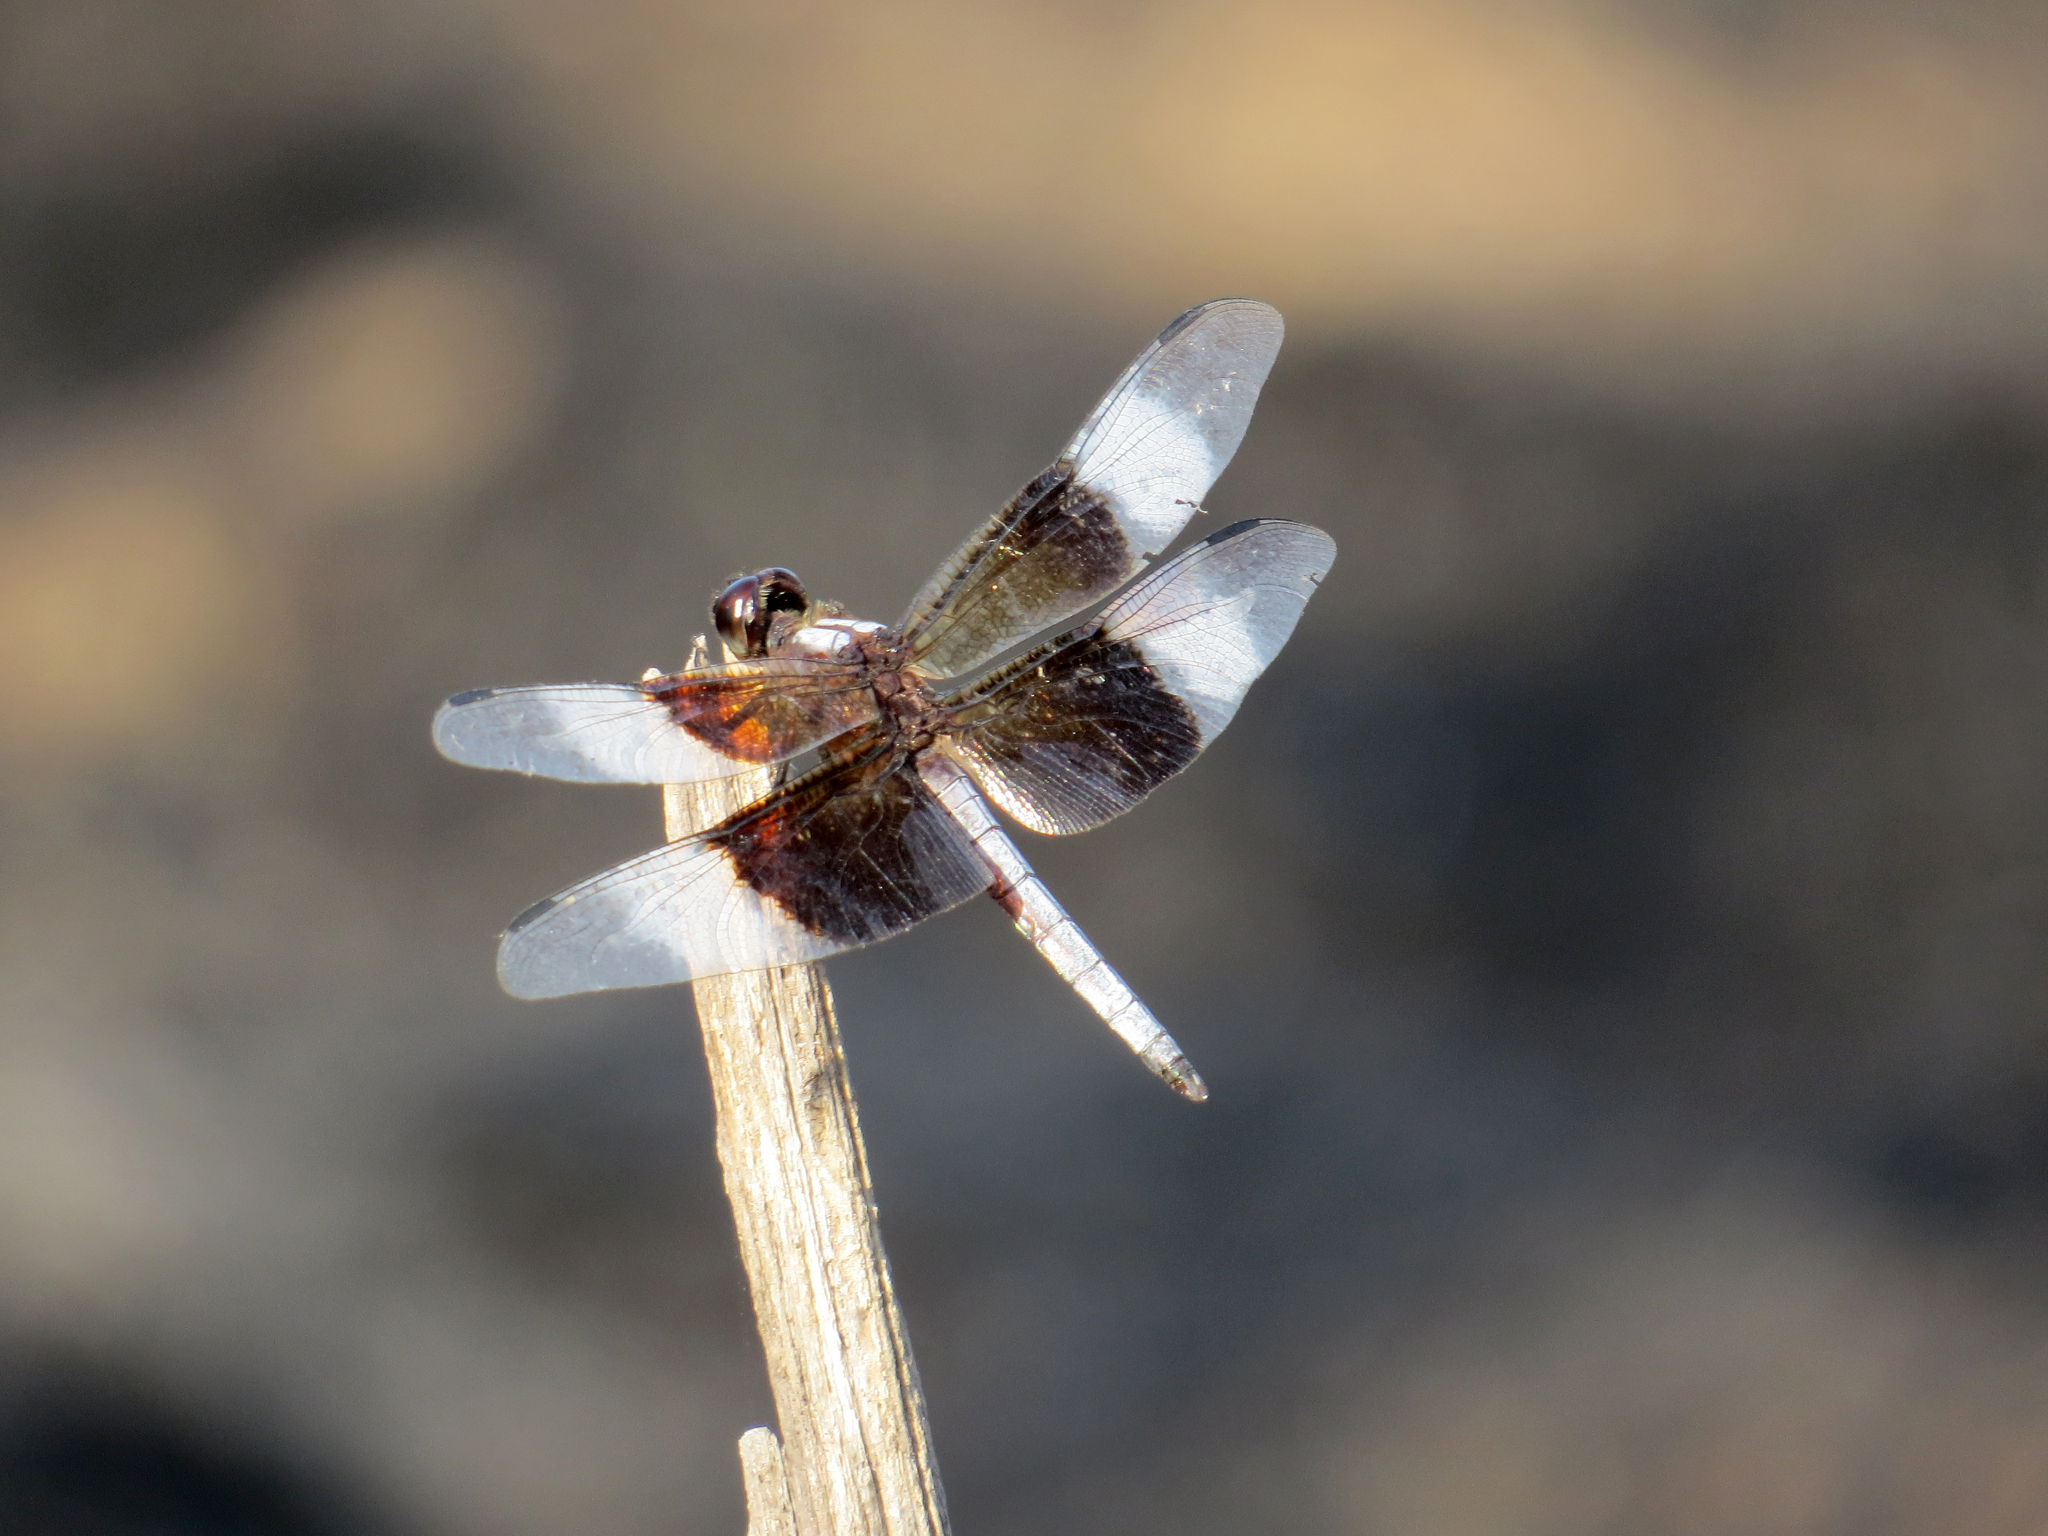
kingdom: Animalia
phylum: Arthropoda
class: Insecta
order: Odonata
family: Libellulidae
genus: Libellula
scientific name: Libellula luctuosa
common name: Widow skimmer
